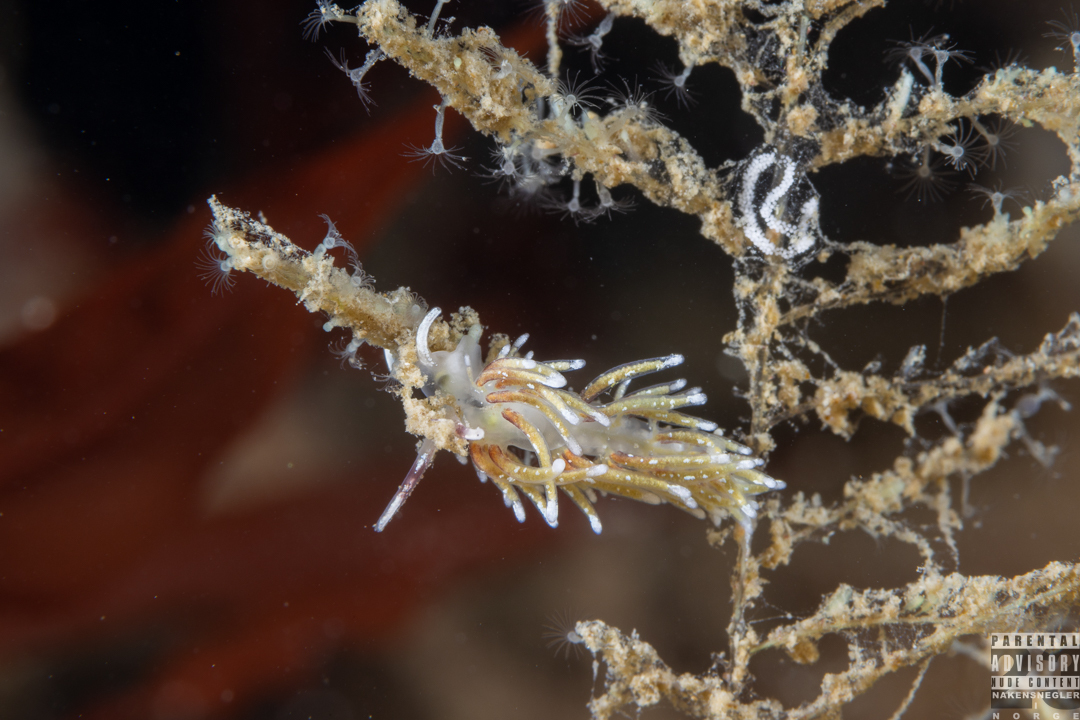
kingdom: Animalia
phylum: Mollusca
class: Gastropoda
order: Nudibranchia
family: Trinchesiidae
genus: Rubramoena
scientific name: Rubramoena rubescens
